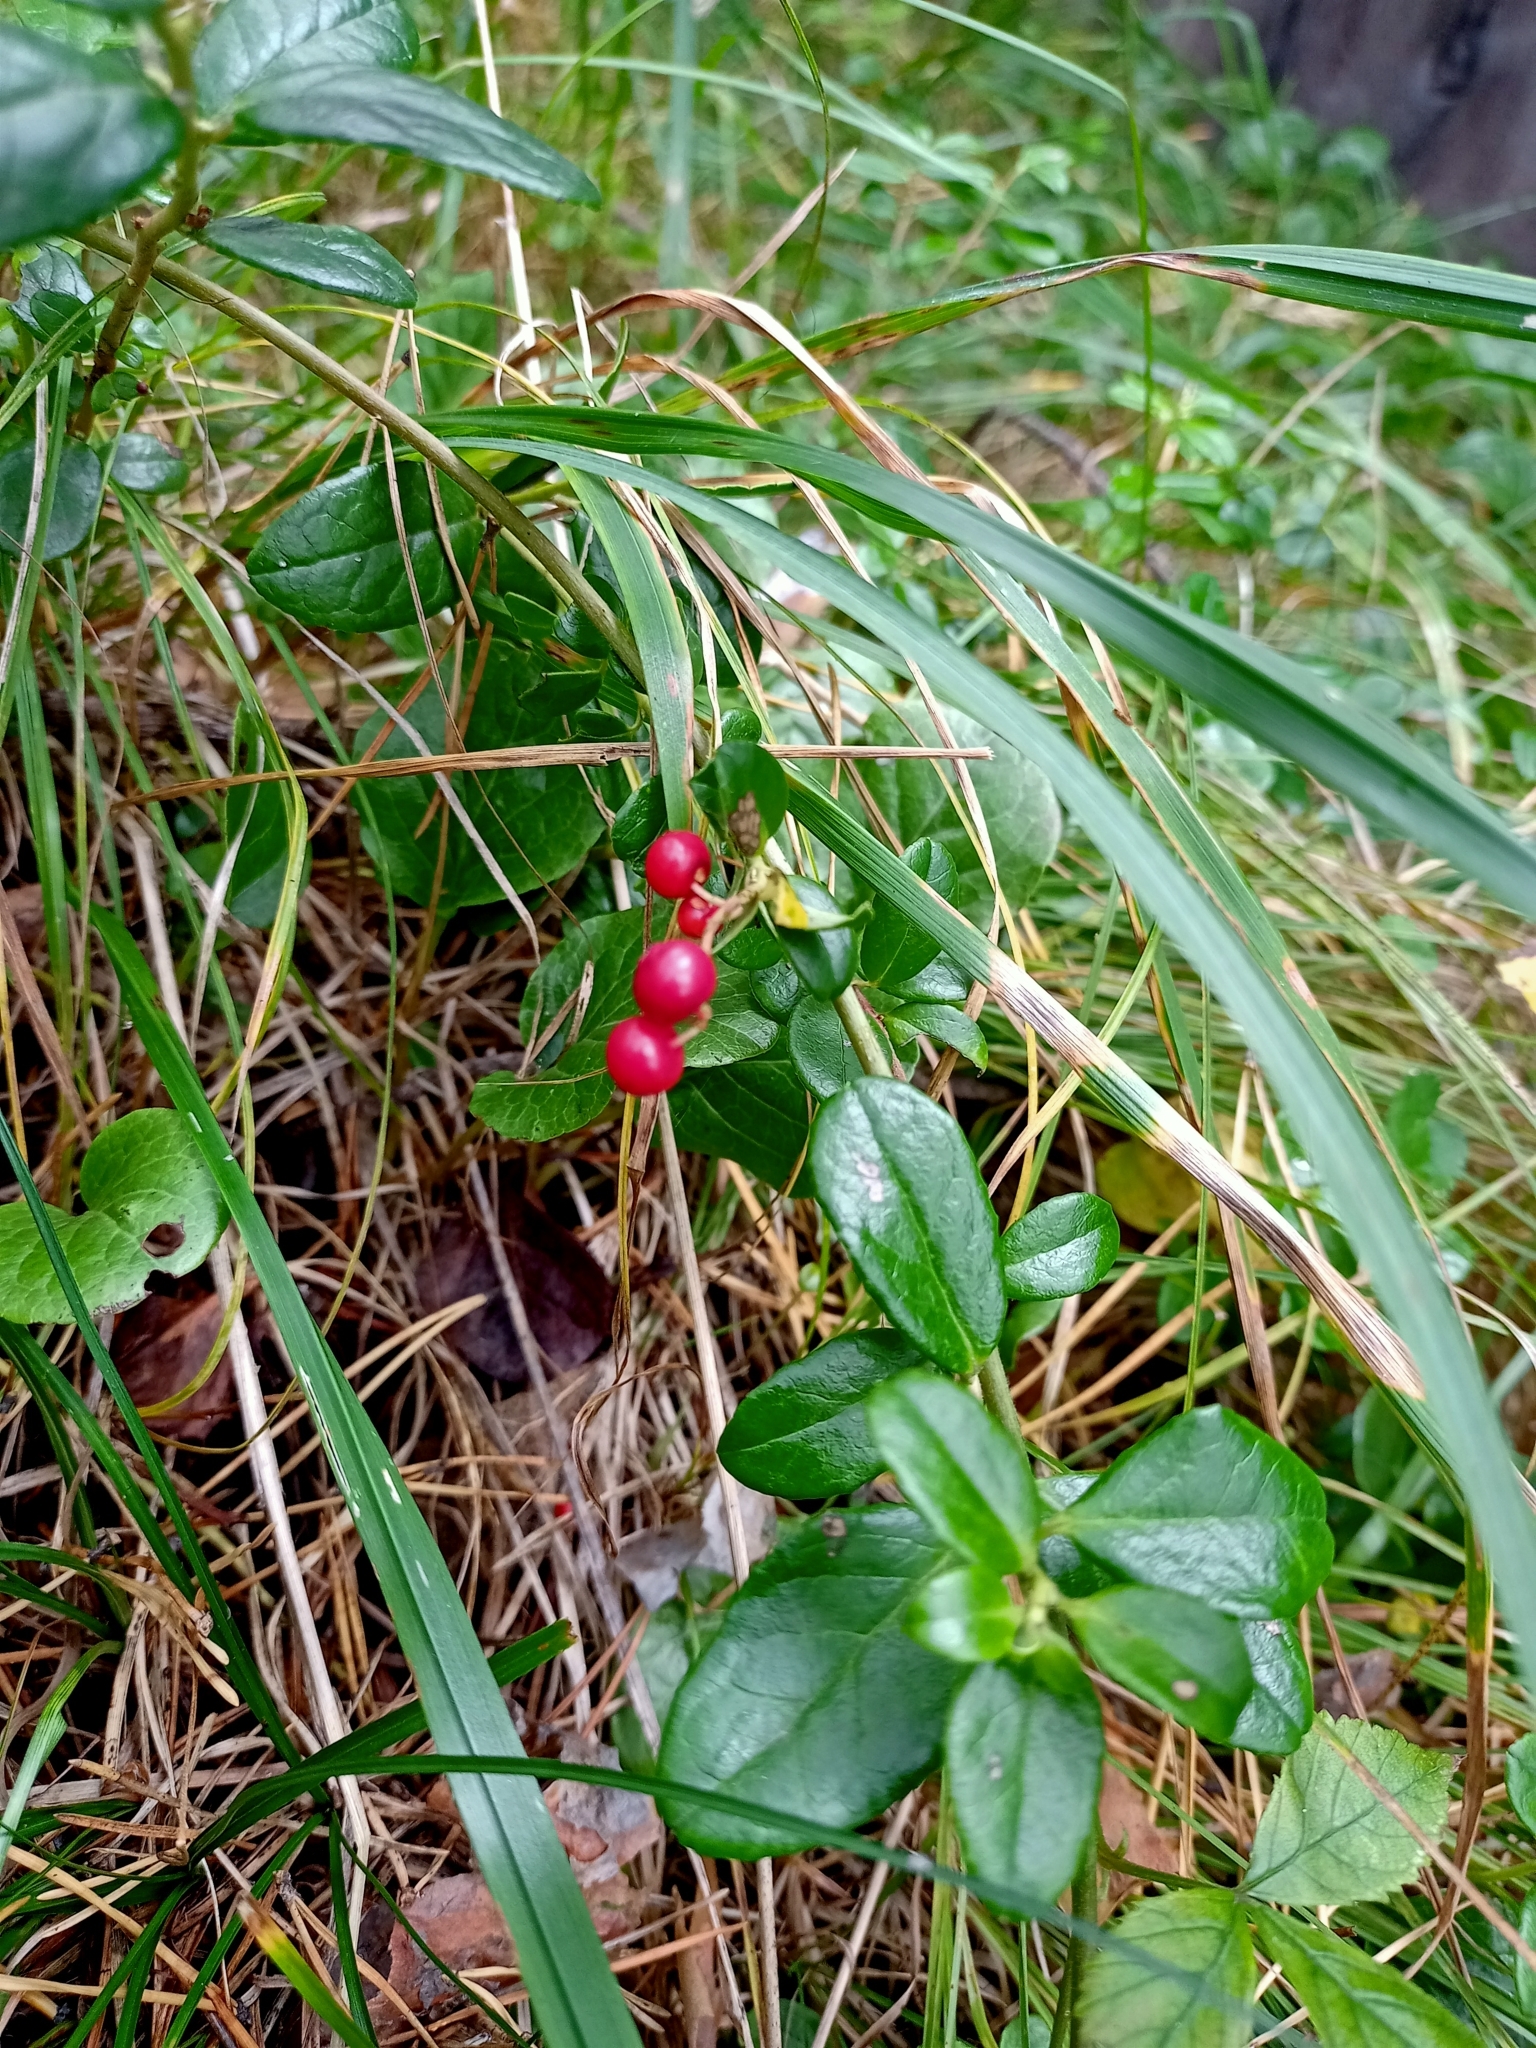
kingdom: Plantae
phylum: Tracheophyta
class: Magnoliopsida
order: Ericales
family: Ericaceae
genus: Vaccinium
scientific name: Vaccinium vitis-idaea
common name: Cowberry
